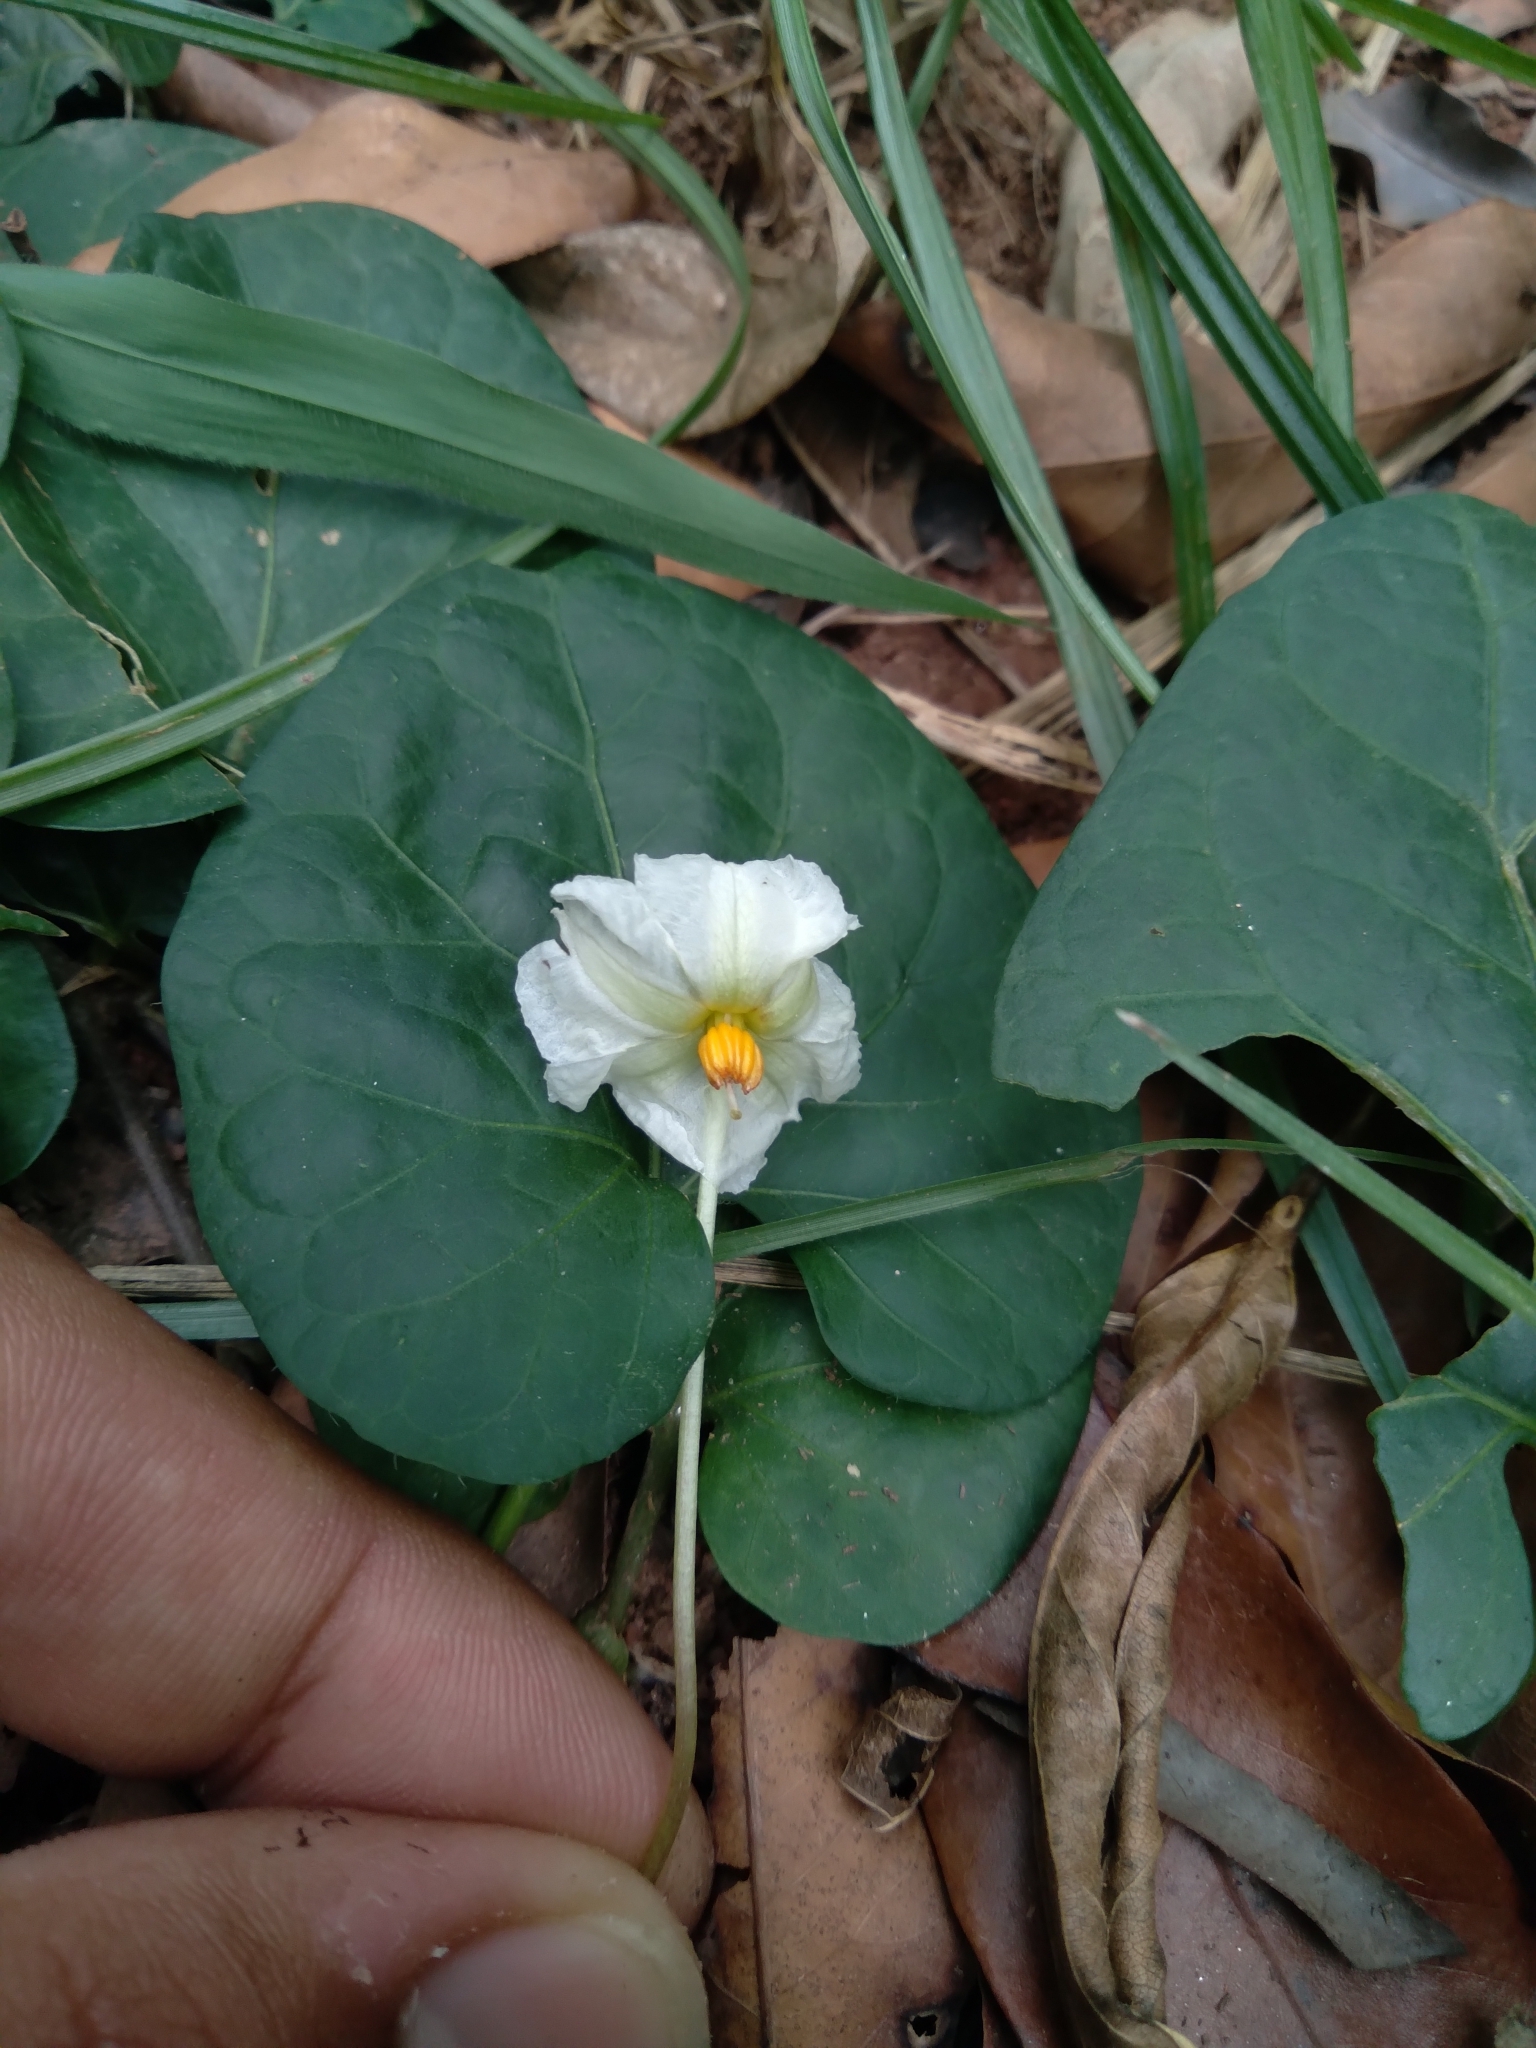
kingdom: Plantae
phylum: Tracheophyta
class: Magnoliopsida
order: Solanales
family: Solanaceae
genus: Lycianthes
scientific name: Lycianthes repens
